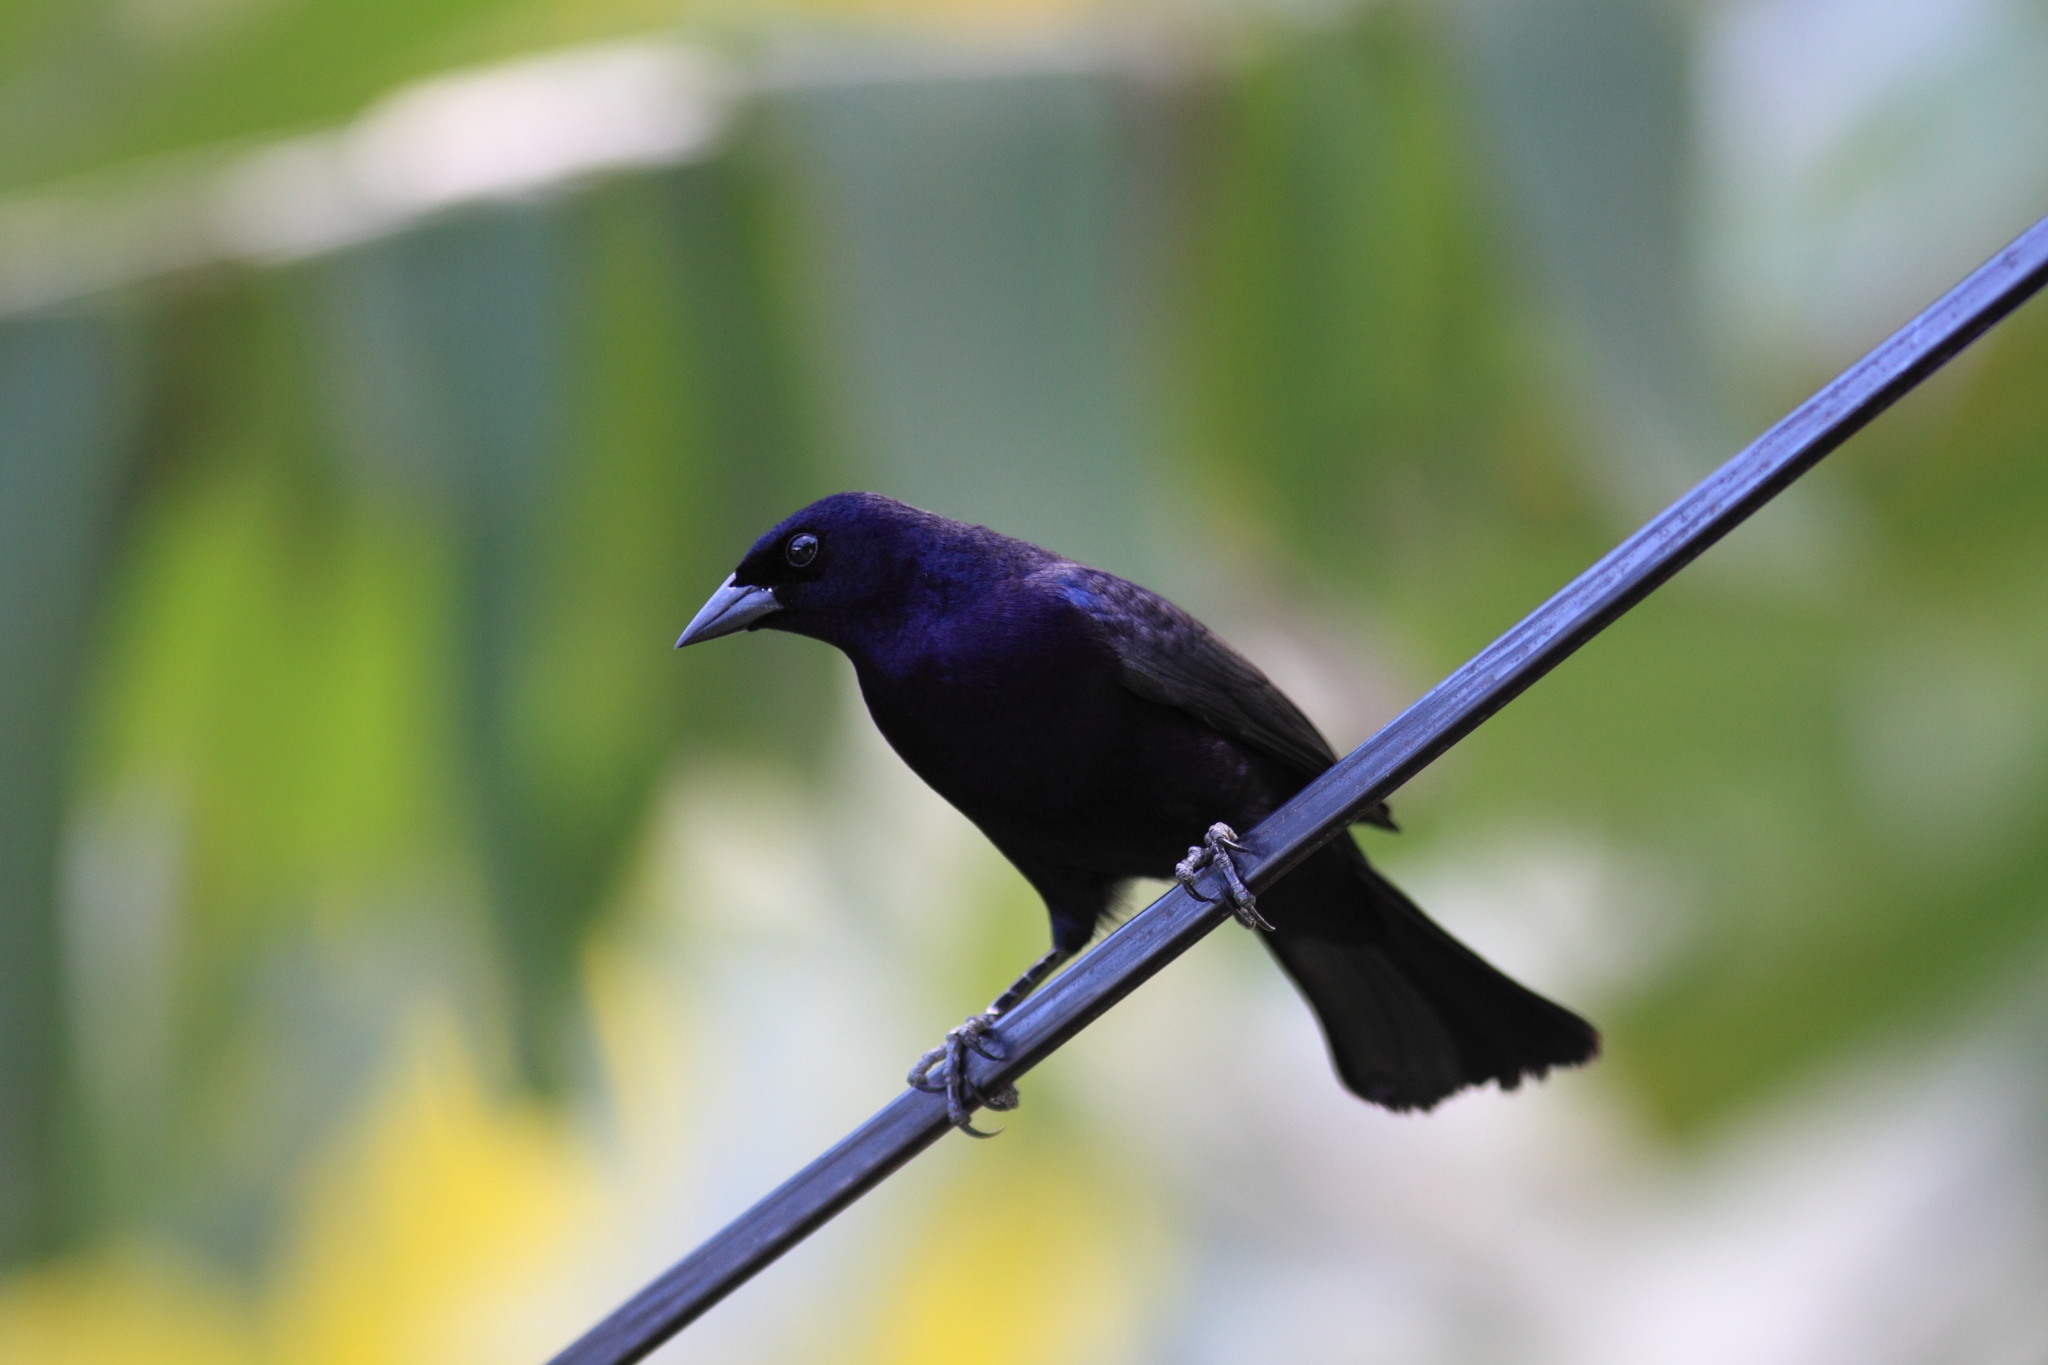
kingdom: Animalia
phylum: Chordata
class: Aves
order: Passeriformes
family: Icteridae
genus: Molothrus
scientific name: Molothrus bonariensis
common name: Shiny cowbird
